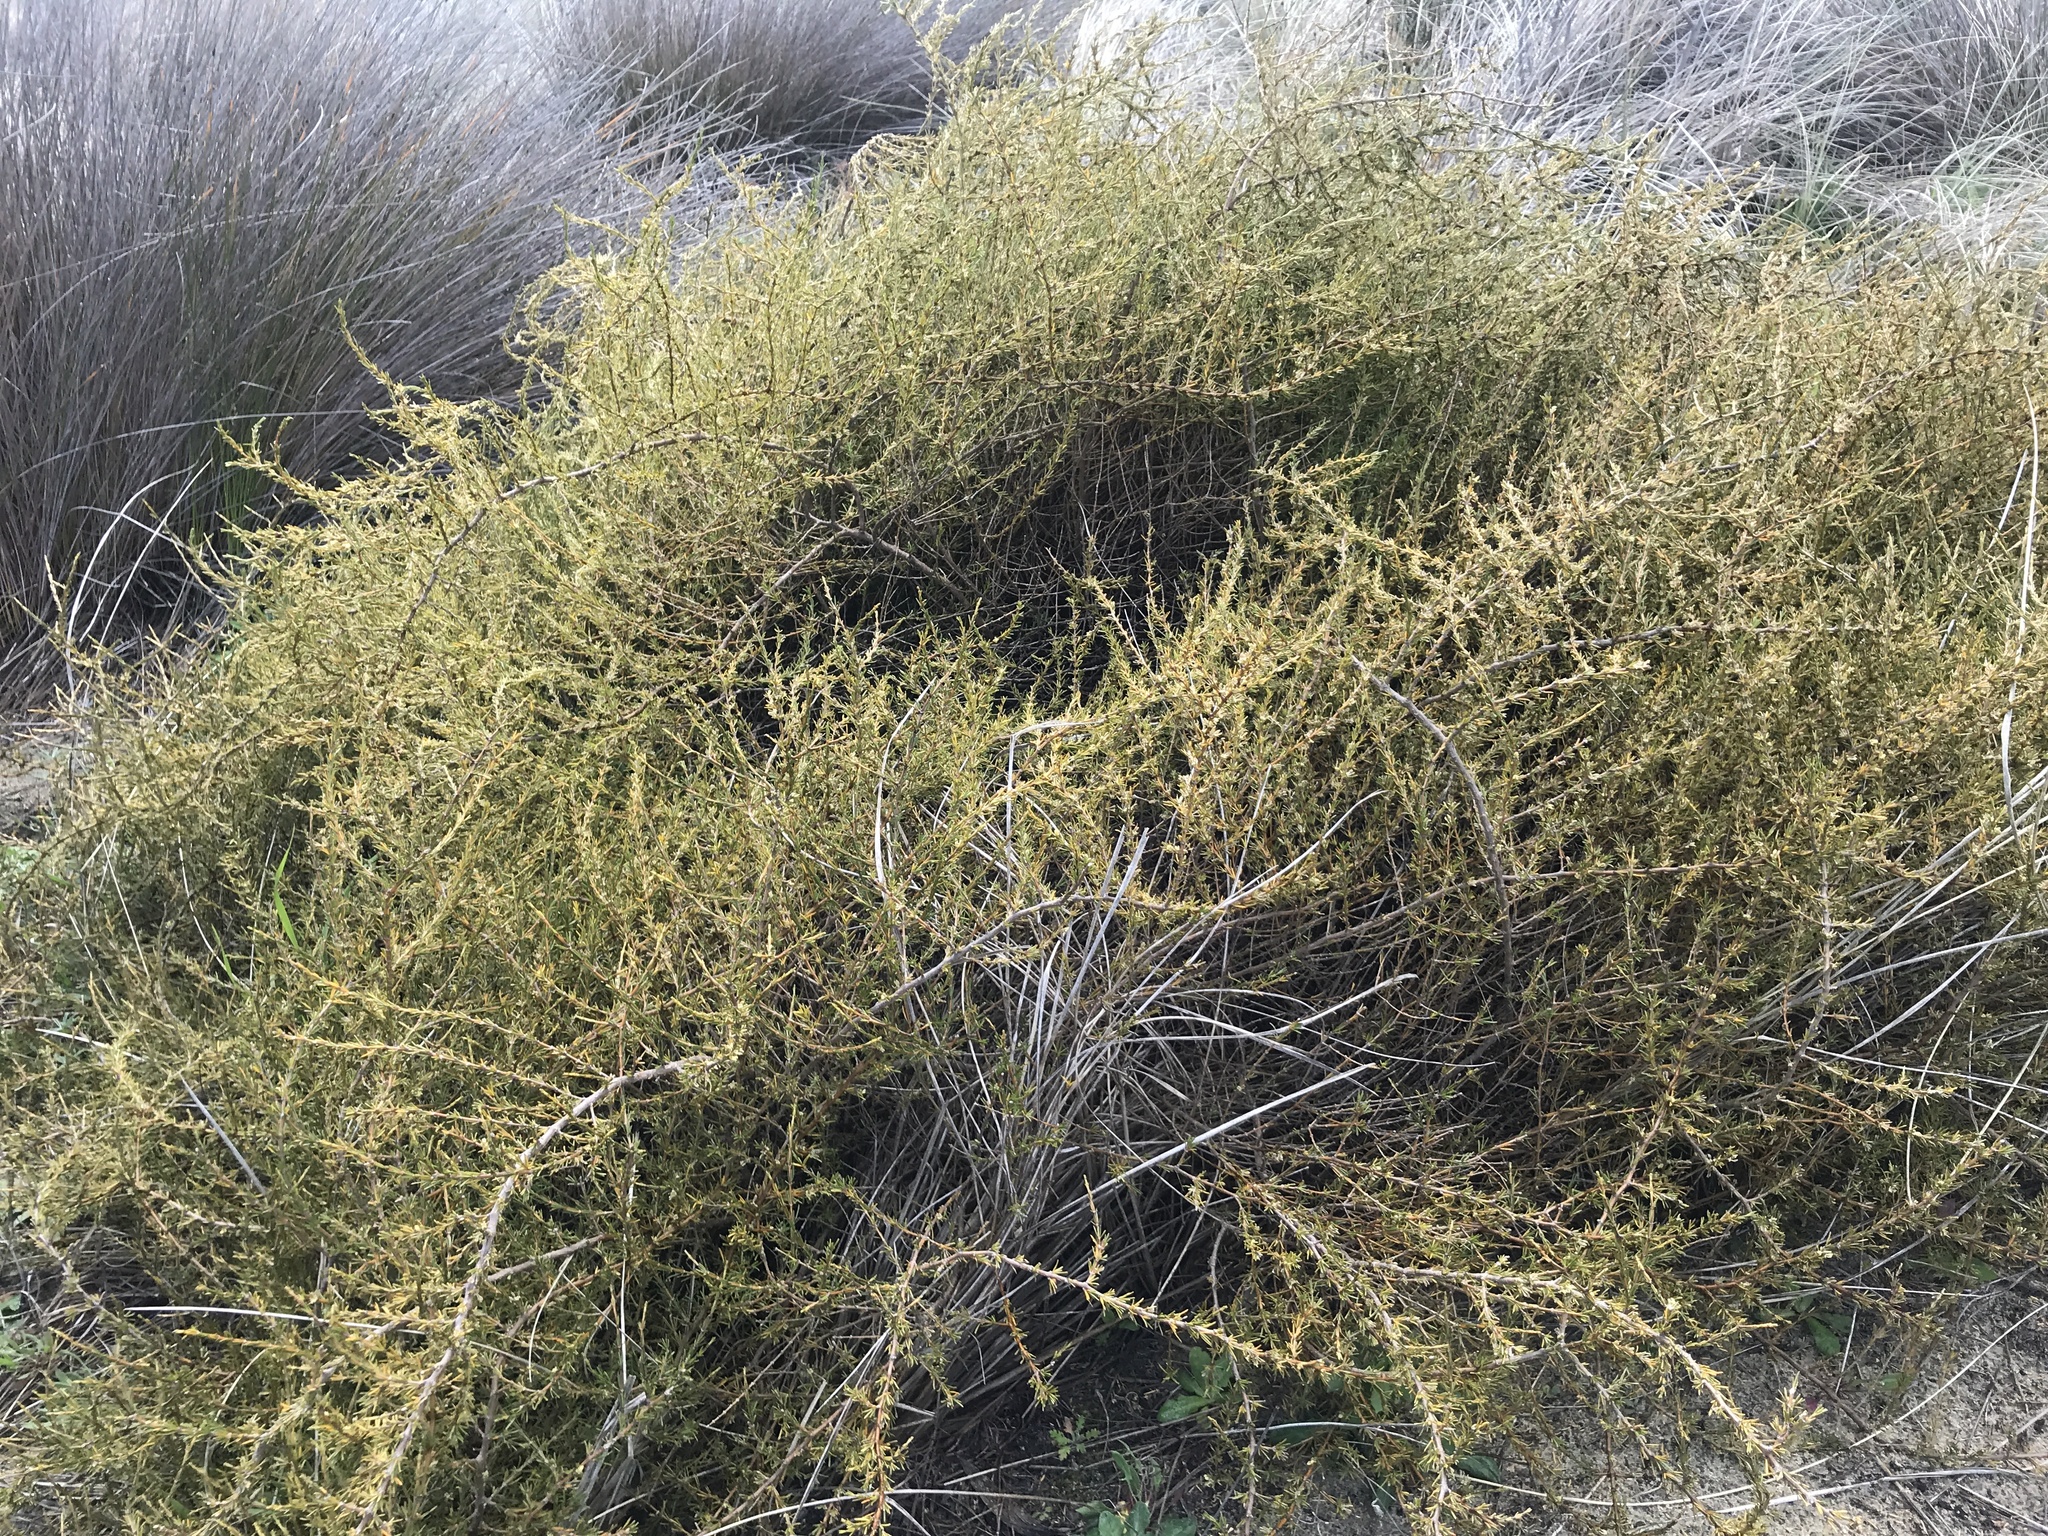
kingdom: Plantae
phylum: Tracheophyta
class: Magnoliopsida
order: Gentianales
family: Rubiaceae
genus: Coprosma
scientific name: Coprosma acerosa
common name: Sand coprosma
